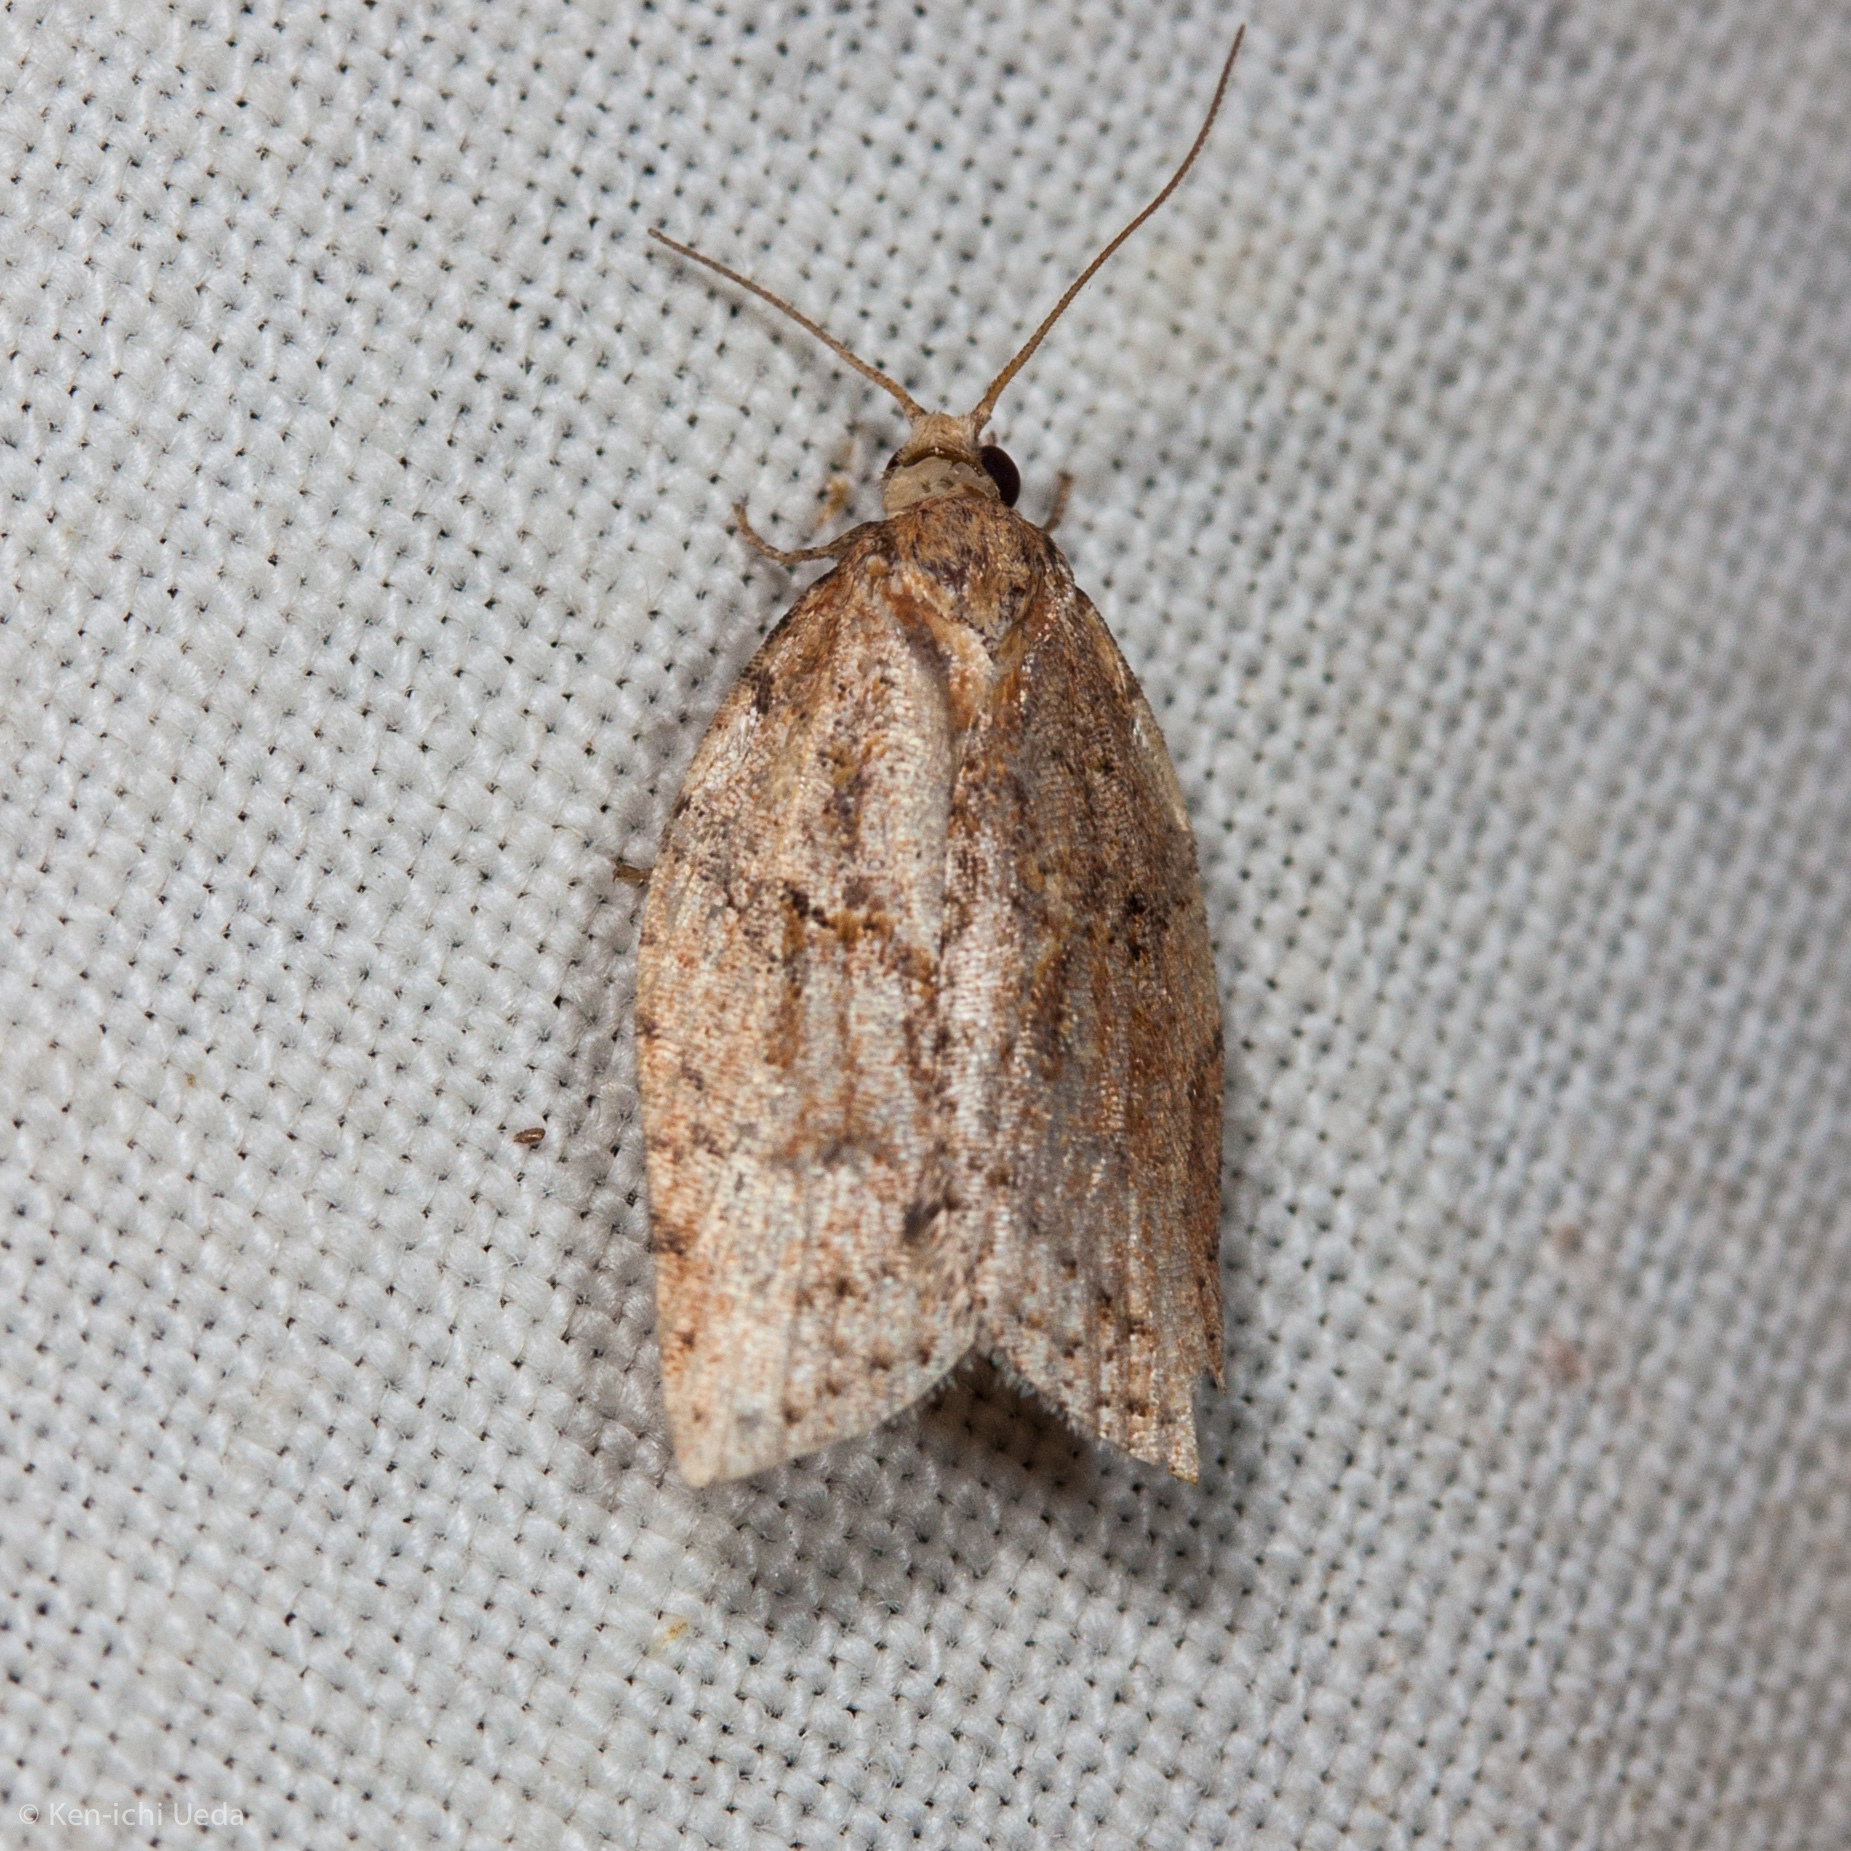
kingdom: Animalia
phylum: Arthropoda
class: Insecta
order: Lepidoptera
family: Tortricidae
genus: Epiphyas
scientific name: Epiphyas postvittana
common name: Light brown apple moth
